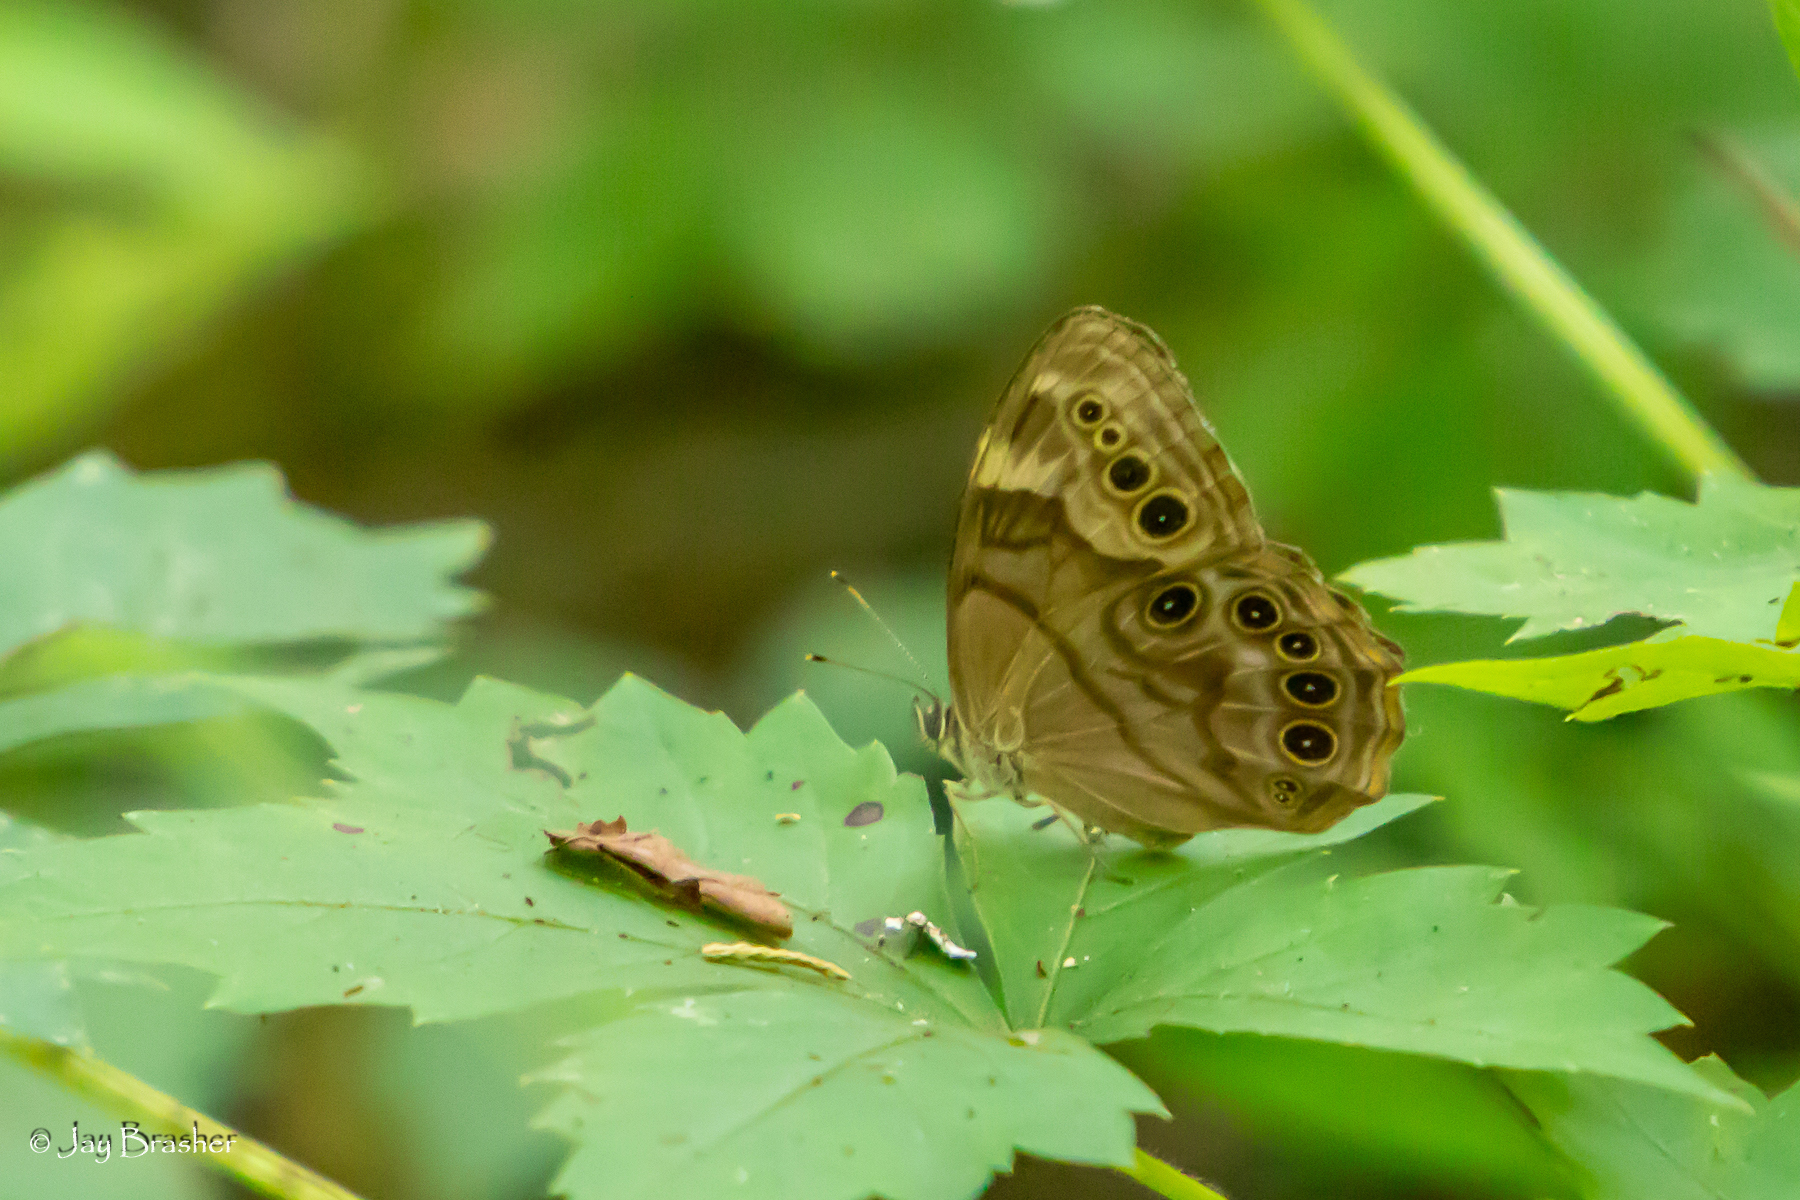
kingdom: Animalia
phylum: Arthropoda
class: Insecta
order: Lepidoptera
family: Nymphalidae
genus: Lethe
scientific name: Lethe anthedon
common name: Northern pearly-eye
